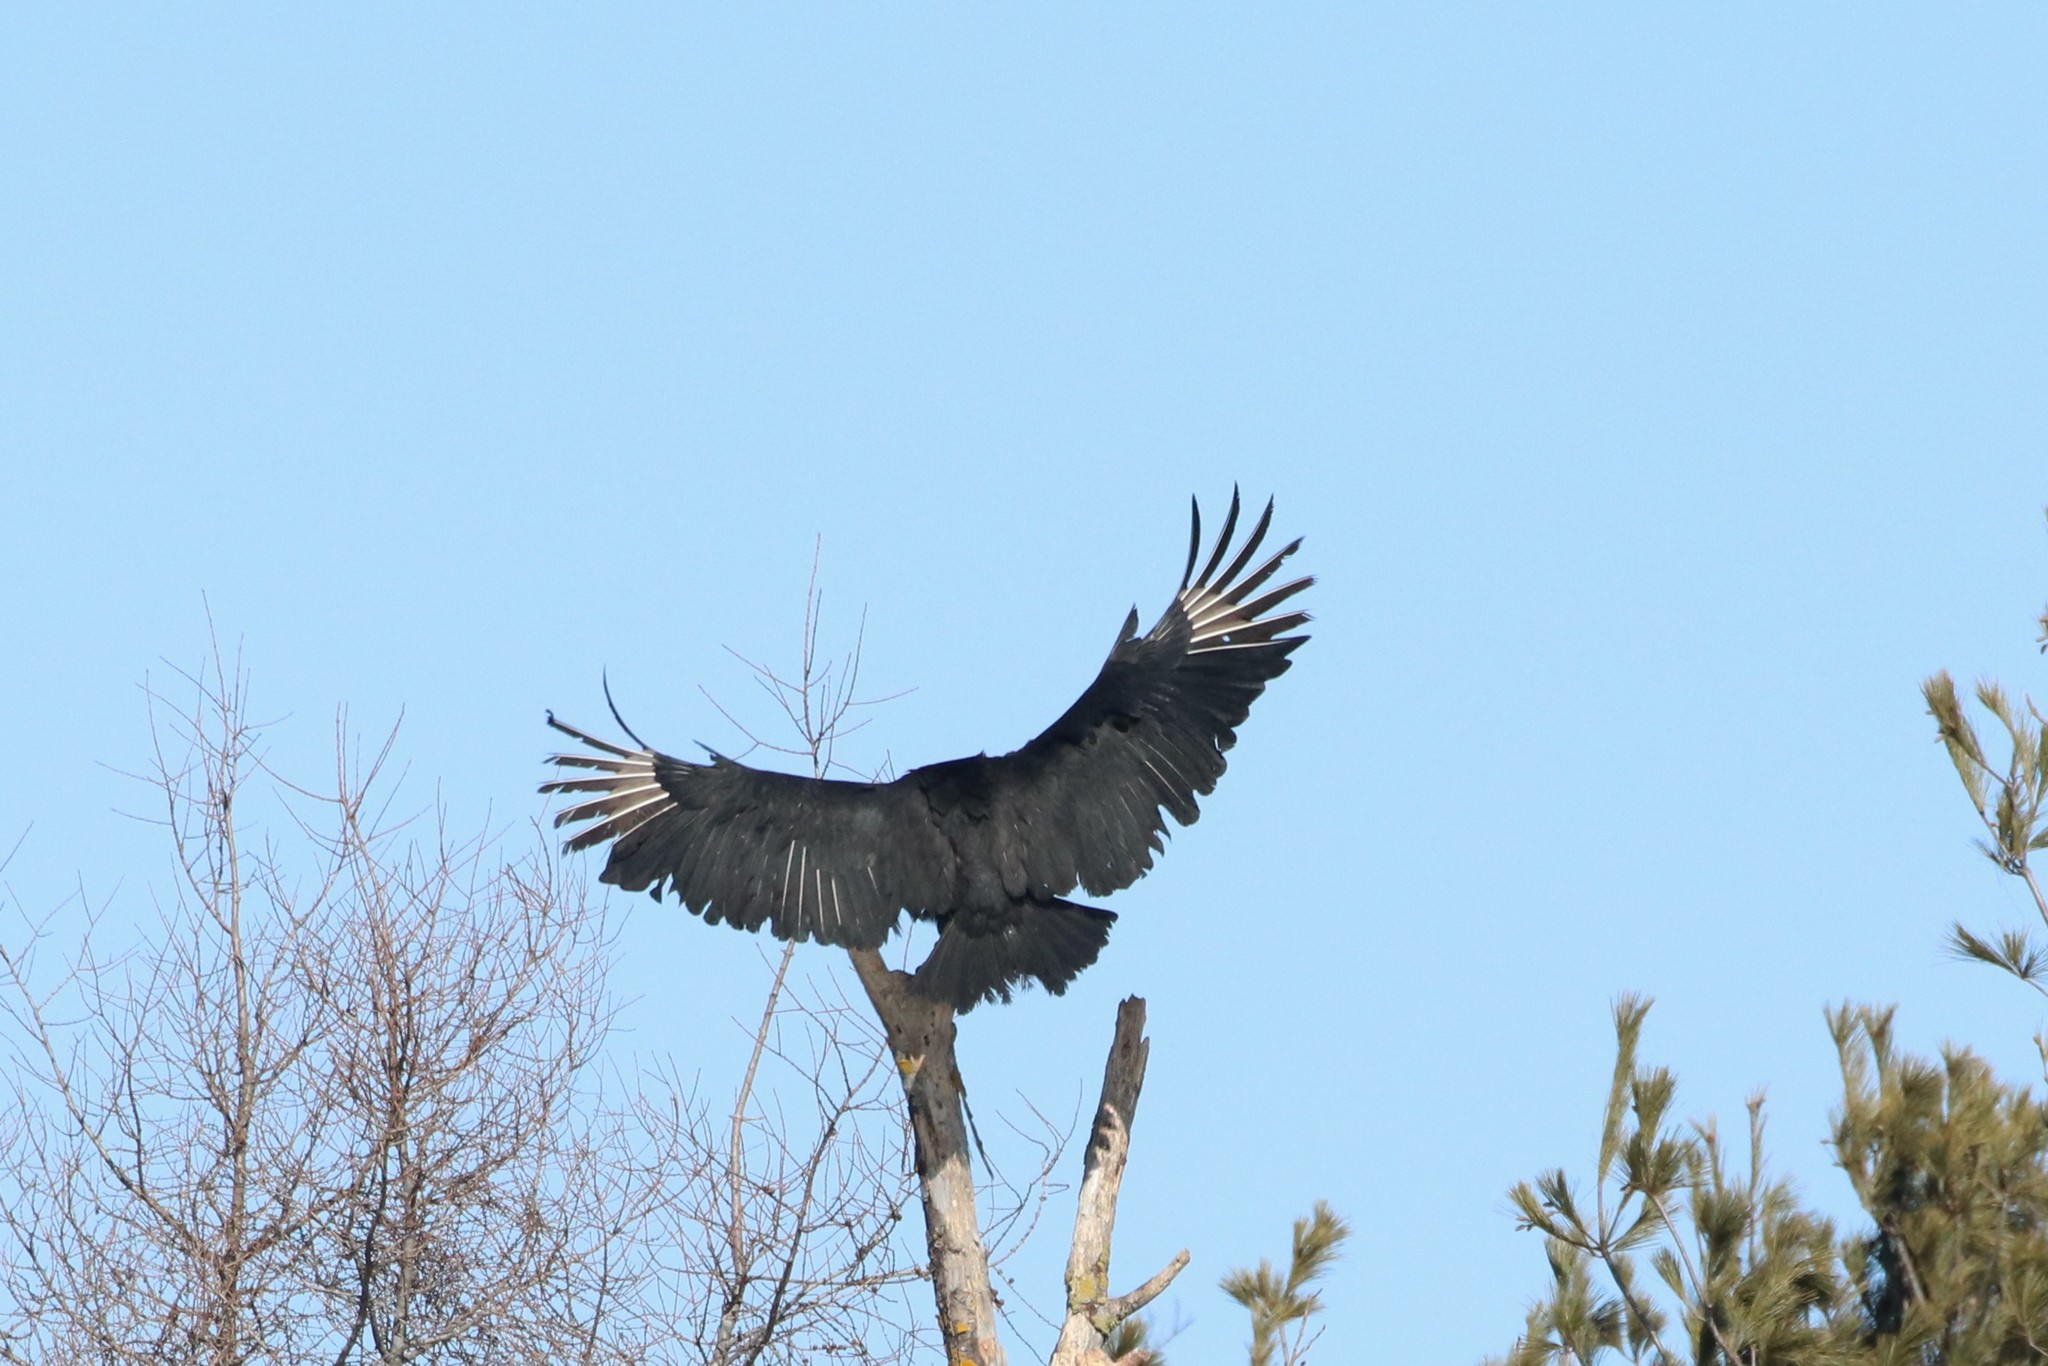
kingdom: Animalia
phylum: Chordata
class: Aves
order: Accipitriformes
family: Cathartidae
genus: Coragyps
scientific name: Coragyps atratus
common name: Black vulture
